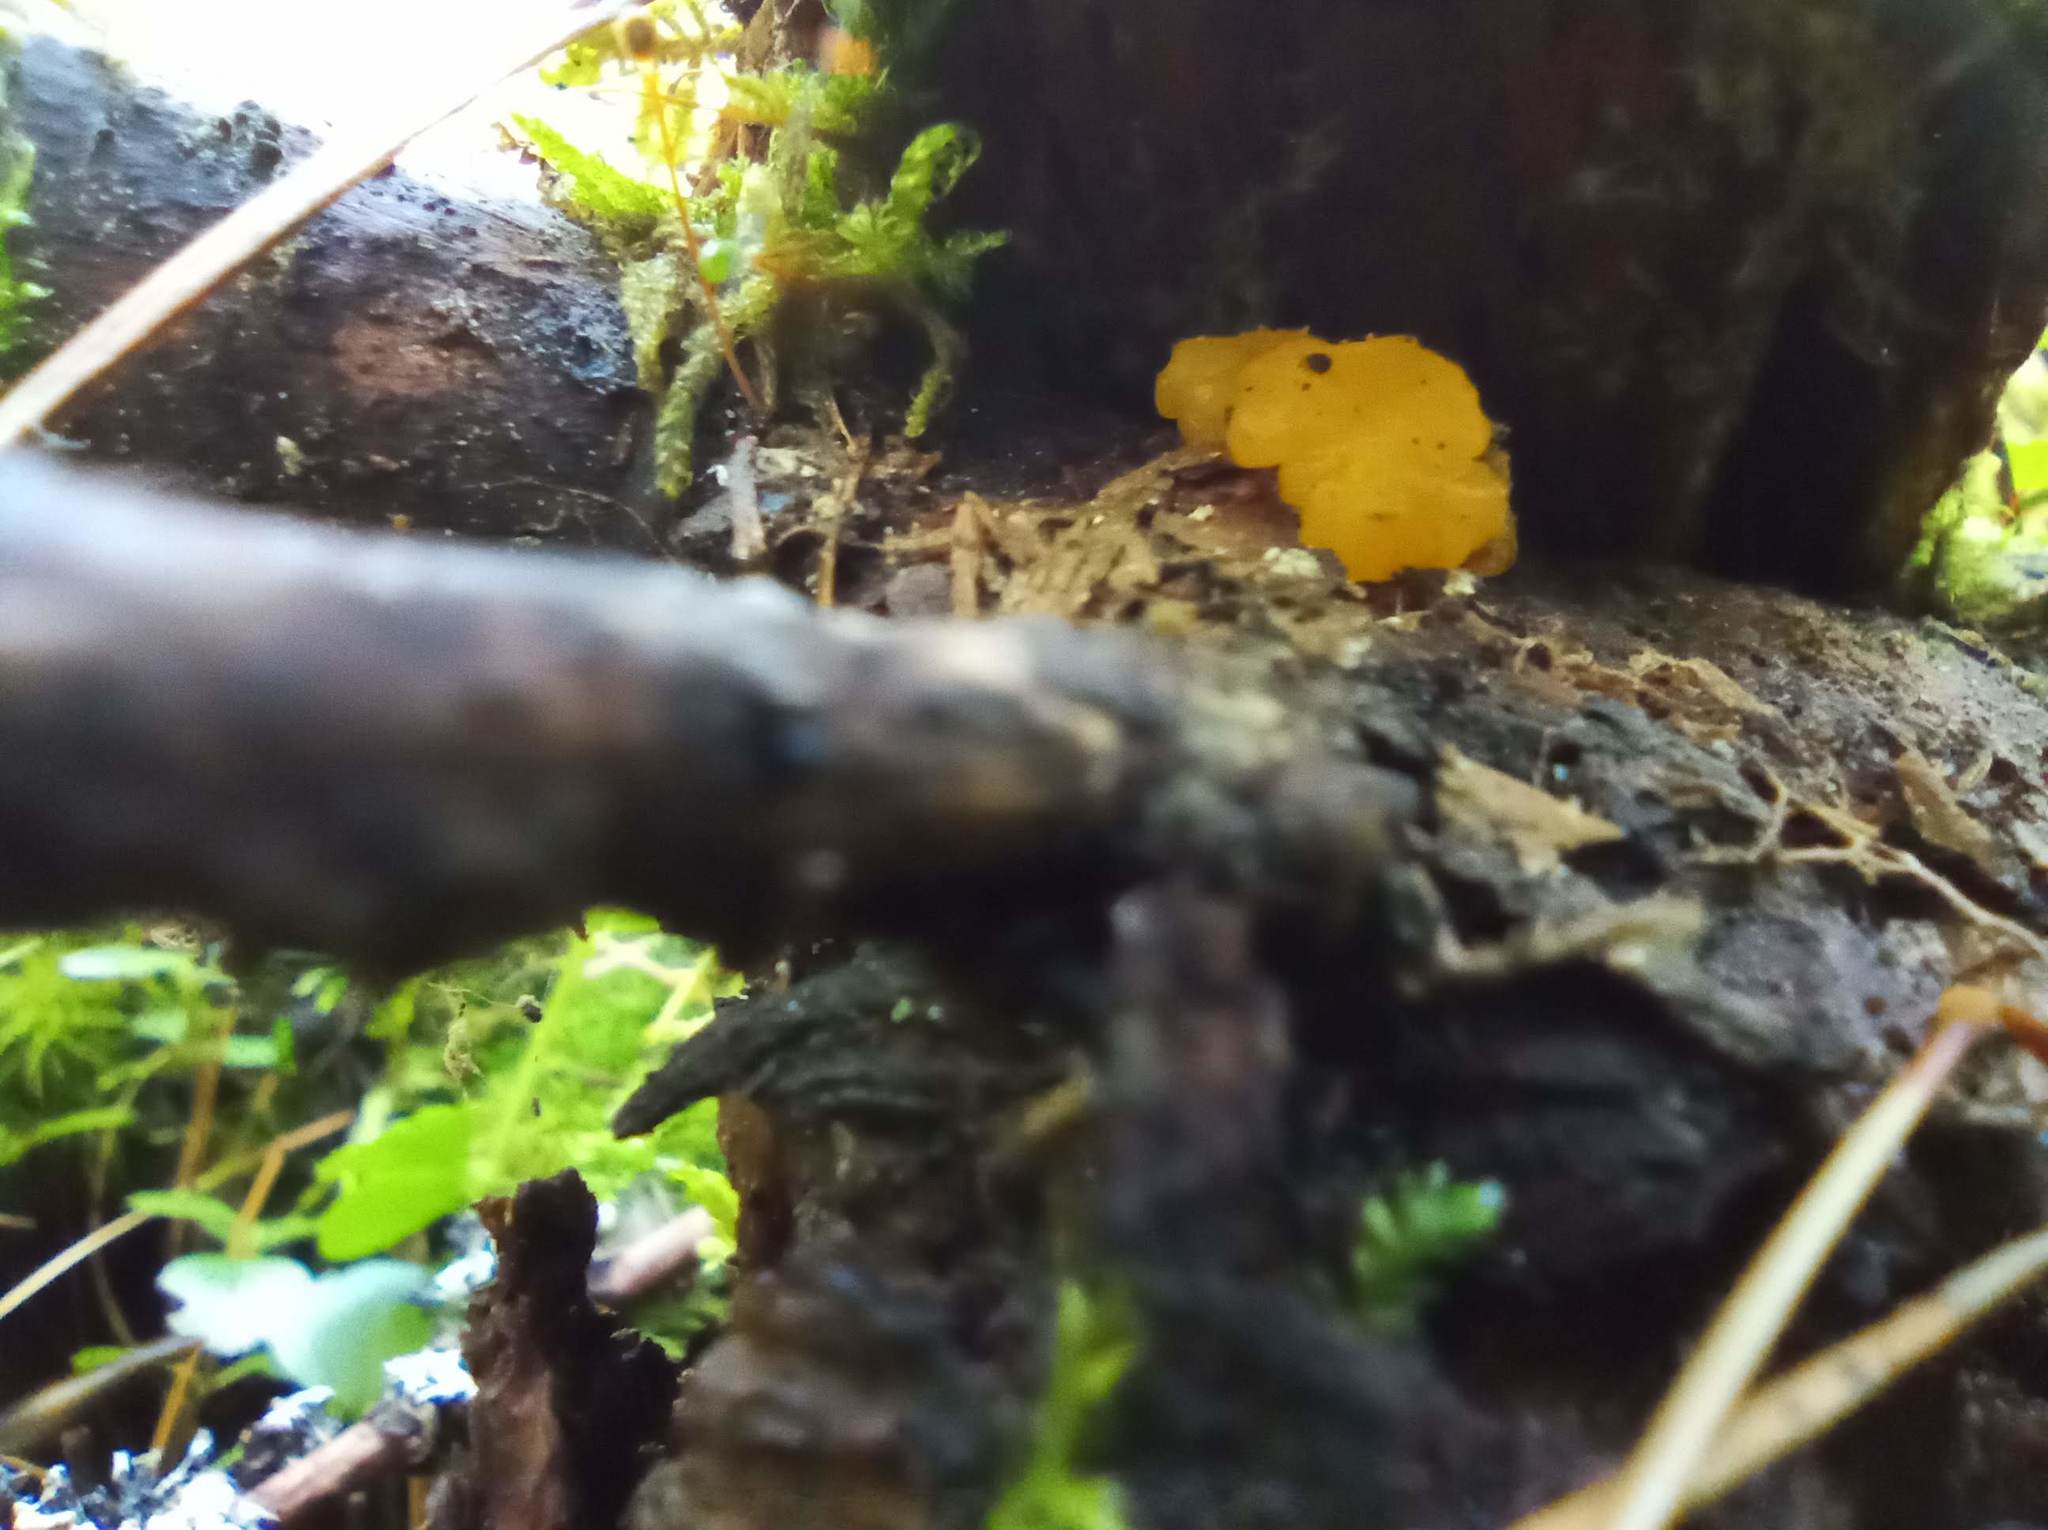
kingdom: Fungi
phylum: Basidiomycota
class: Dacrymycetes
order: Dacrymycetales
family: Dacrymycetaceae
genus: Dacrymyces
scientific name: Dacrymyces chrysospermus
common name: Orange jelly spot
